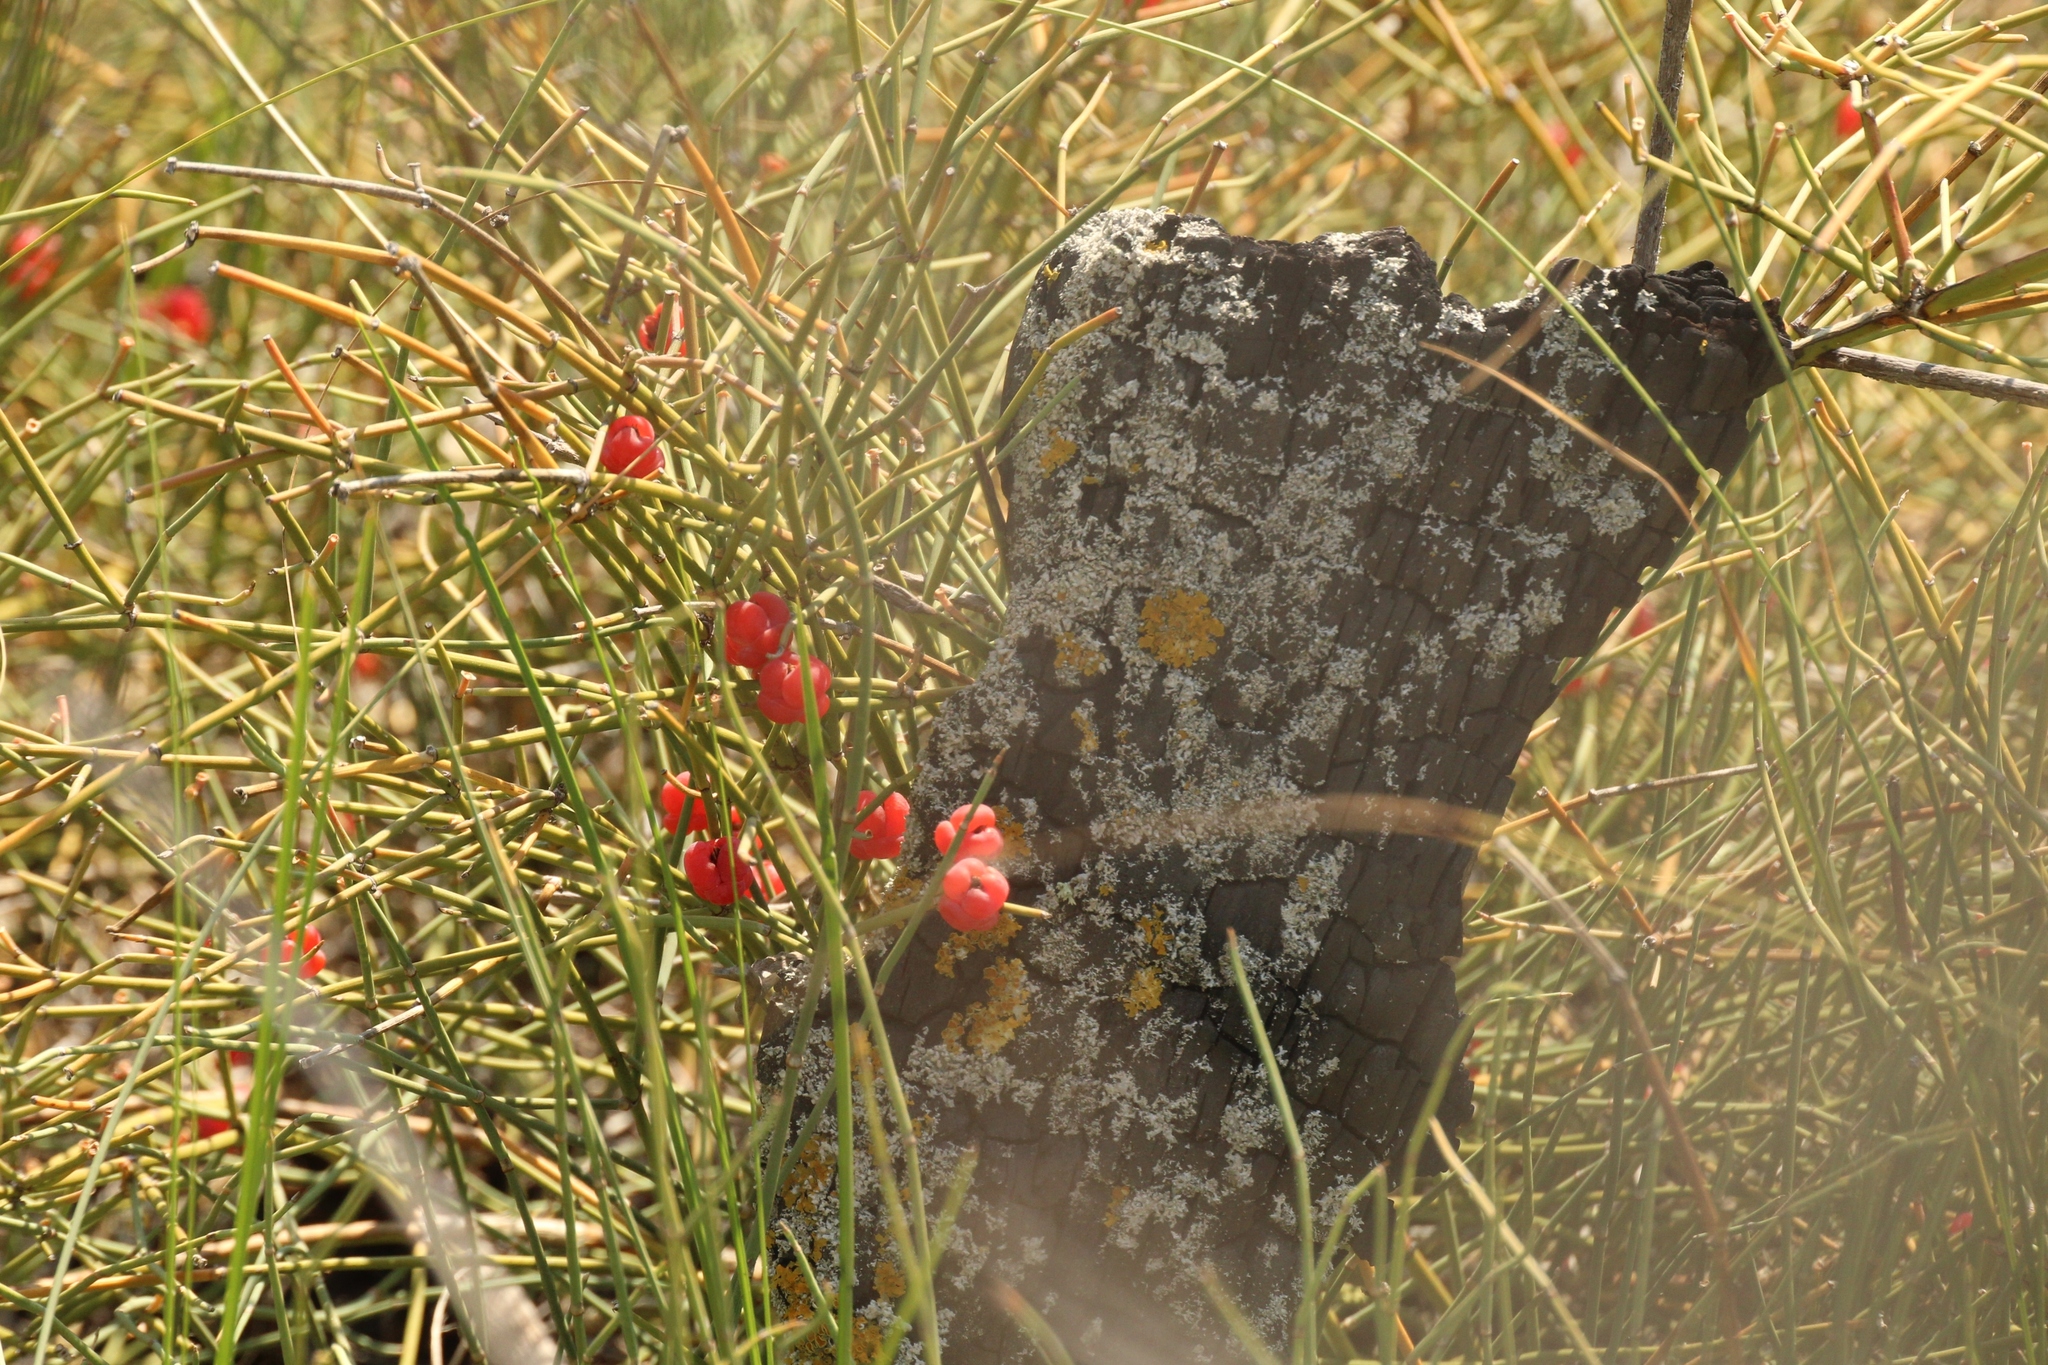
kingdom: Plantae
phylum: Tracheophyta
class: Gnetopsida
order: Ephedrales
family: Ephedraceae
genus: Ephedra
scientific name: Ephedra distachya
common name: Sea grape
